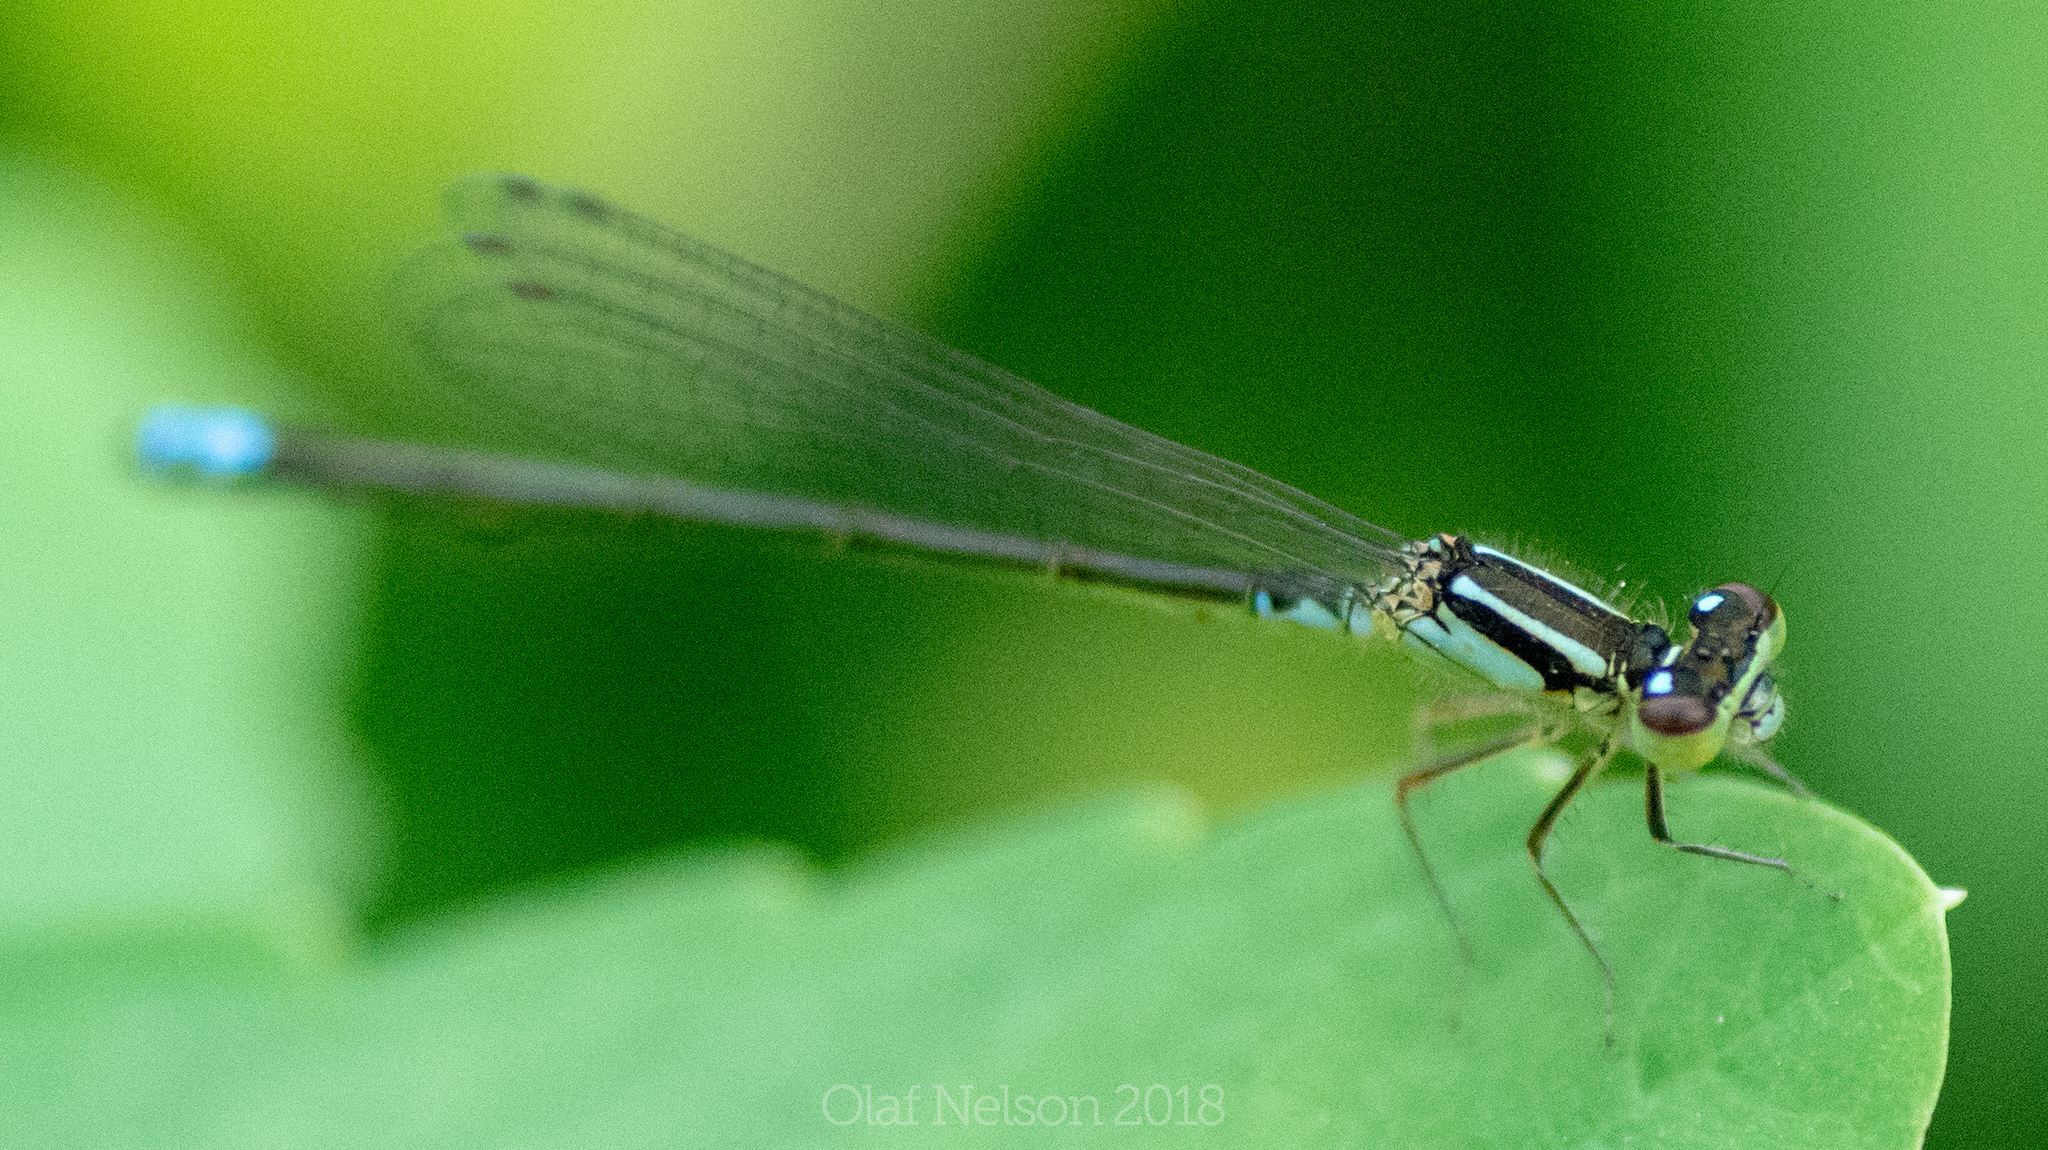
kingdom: Animalia
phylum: Arthropoda
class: Insecta
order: Odonata
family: Coenagrionidae
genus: Ischnura
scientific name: Ischnura verticalis
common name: Eastern forktail
